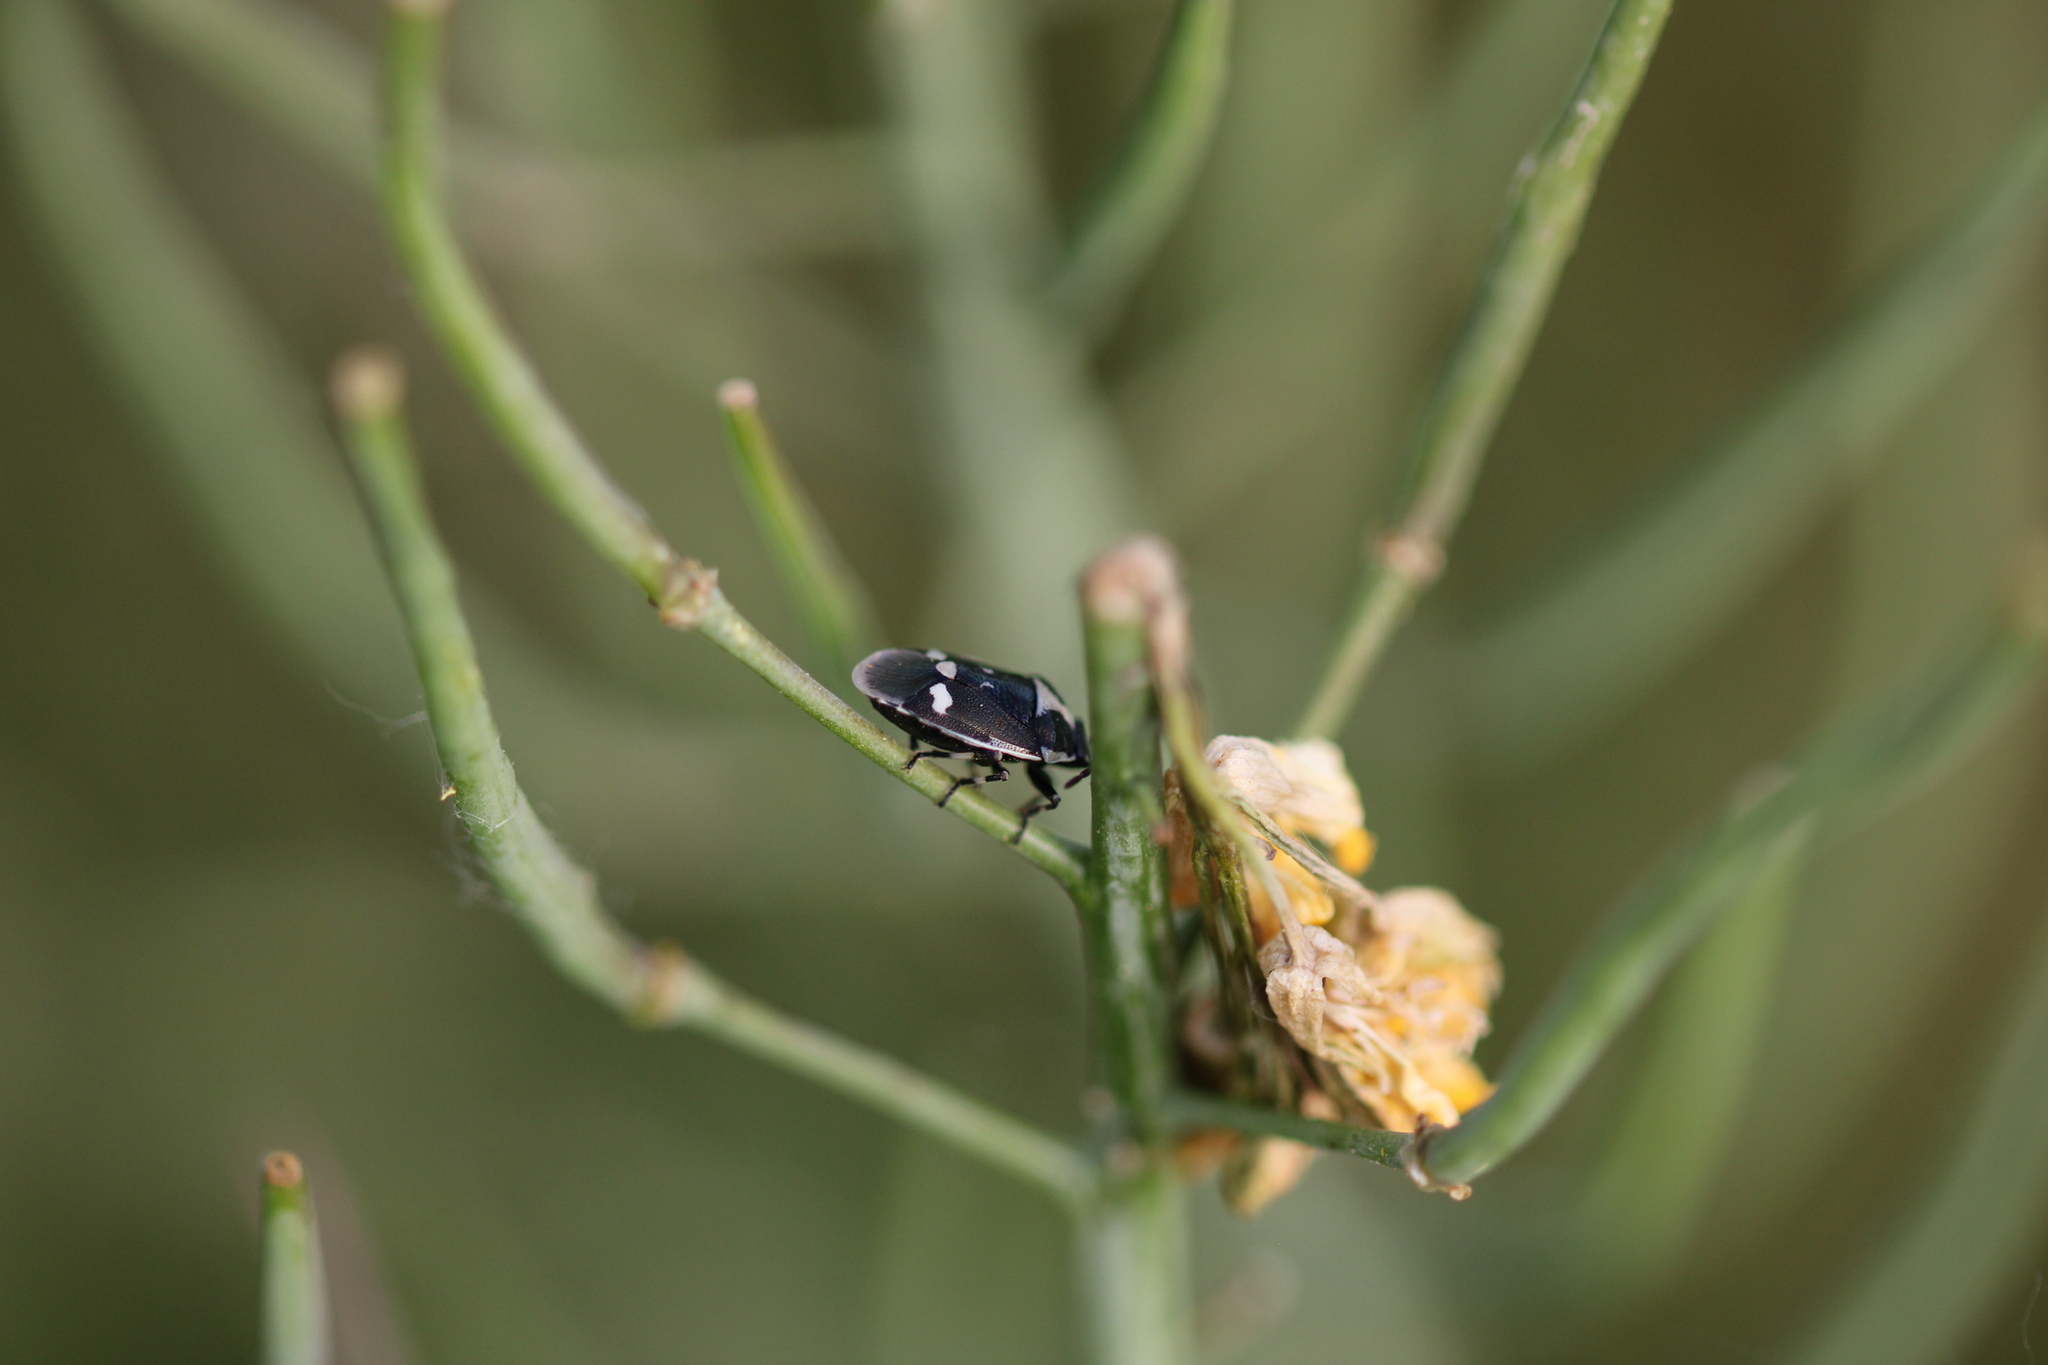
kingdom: Animalia
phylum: Arthropoda
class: Insecta
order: Hemiptera
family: Pentatomidae
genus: Eurydema
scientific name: Eurydema oleracea
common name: Cabbage bug
